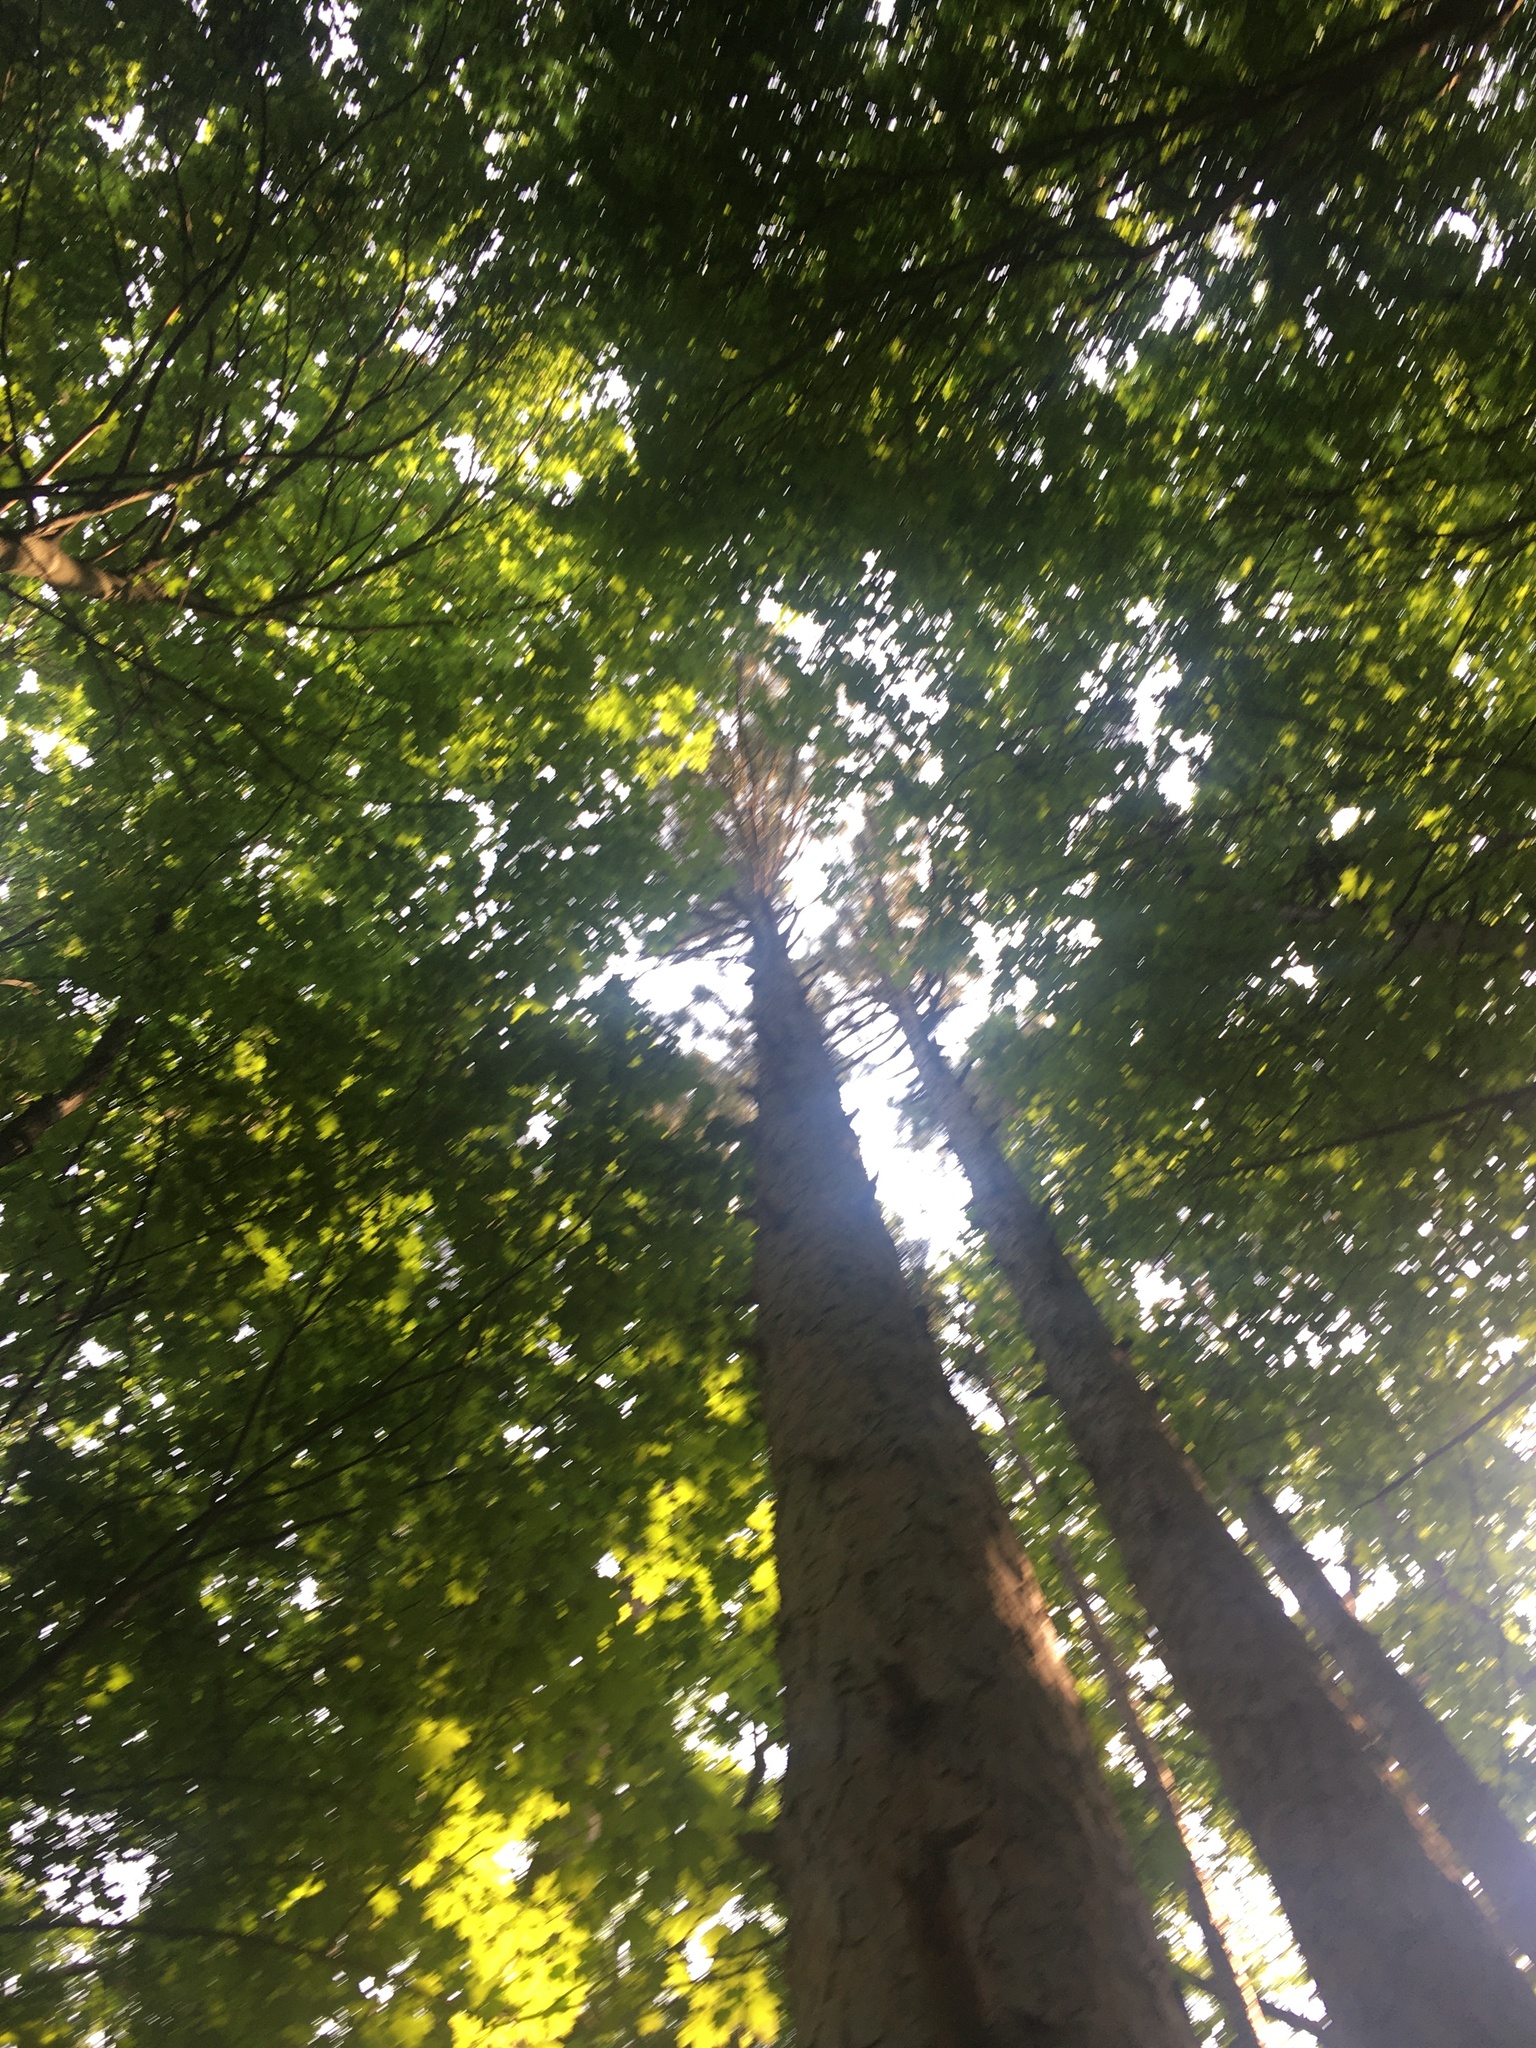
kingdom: Plantae
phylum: Tracheophyta
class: Pinopsida
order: Pinales
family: Pinaceae
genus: Pinus
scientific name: Pinus resinosa
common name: Norway pine
